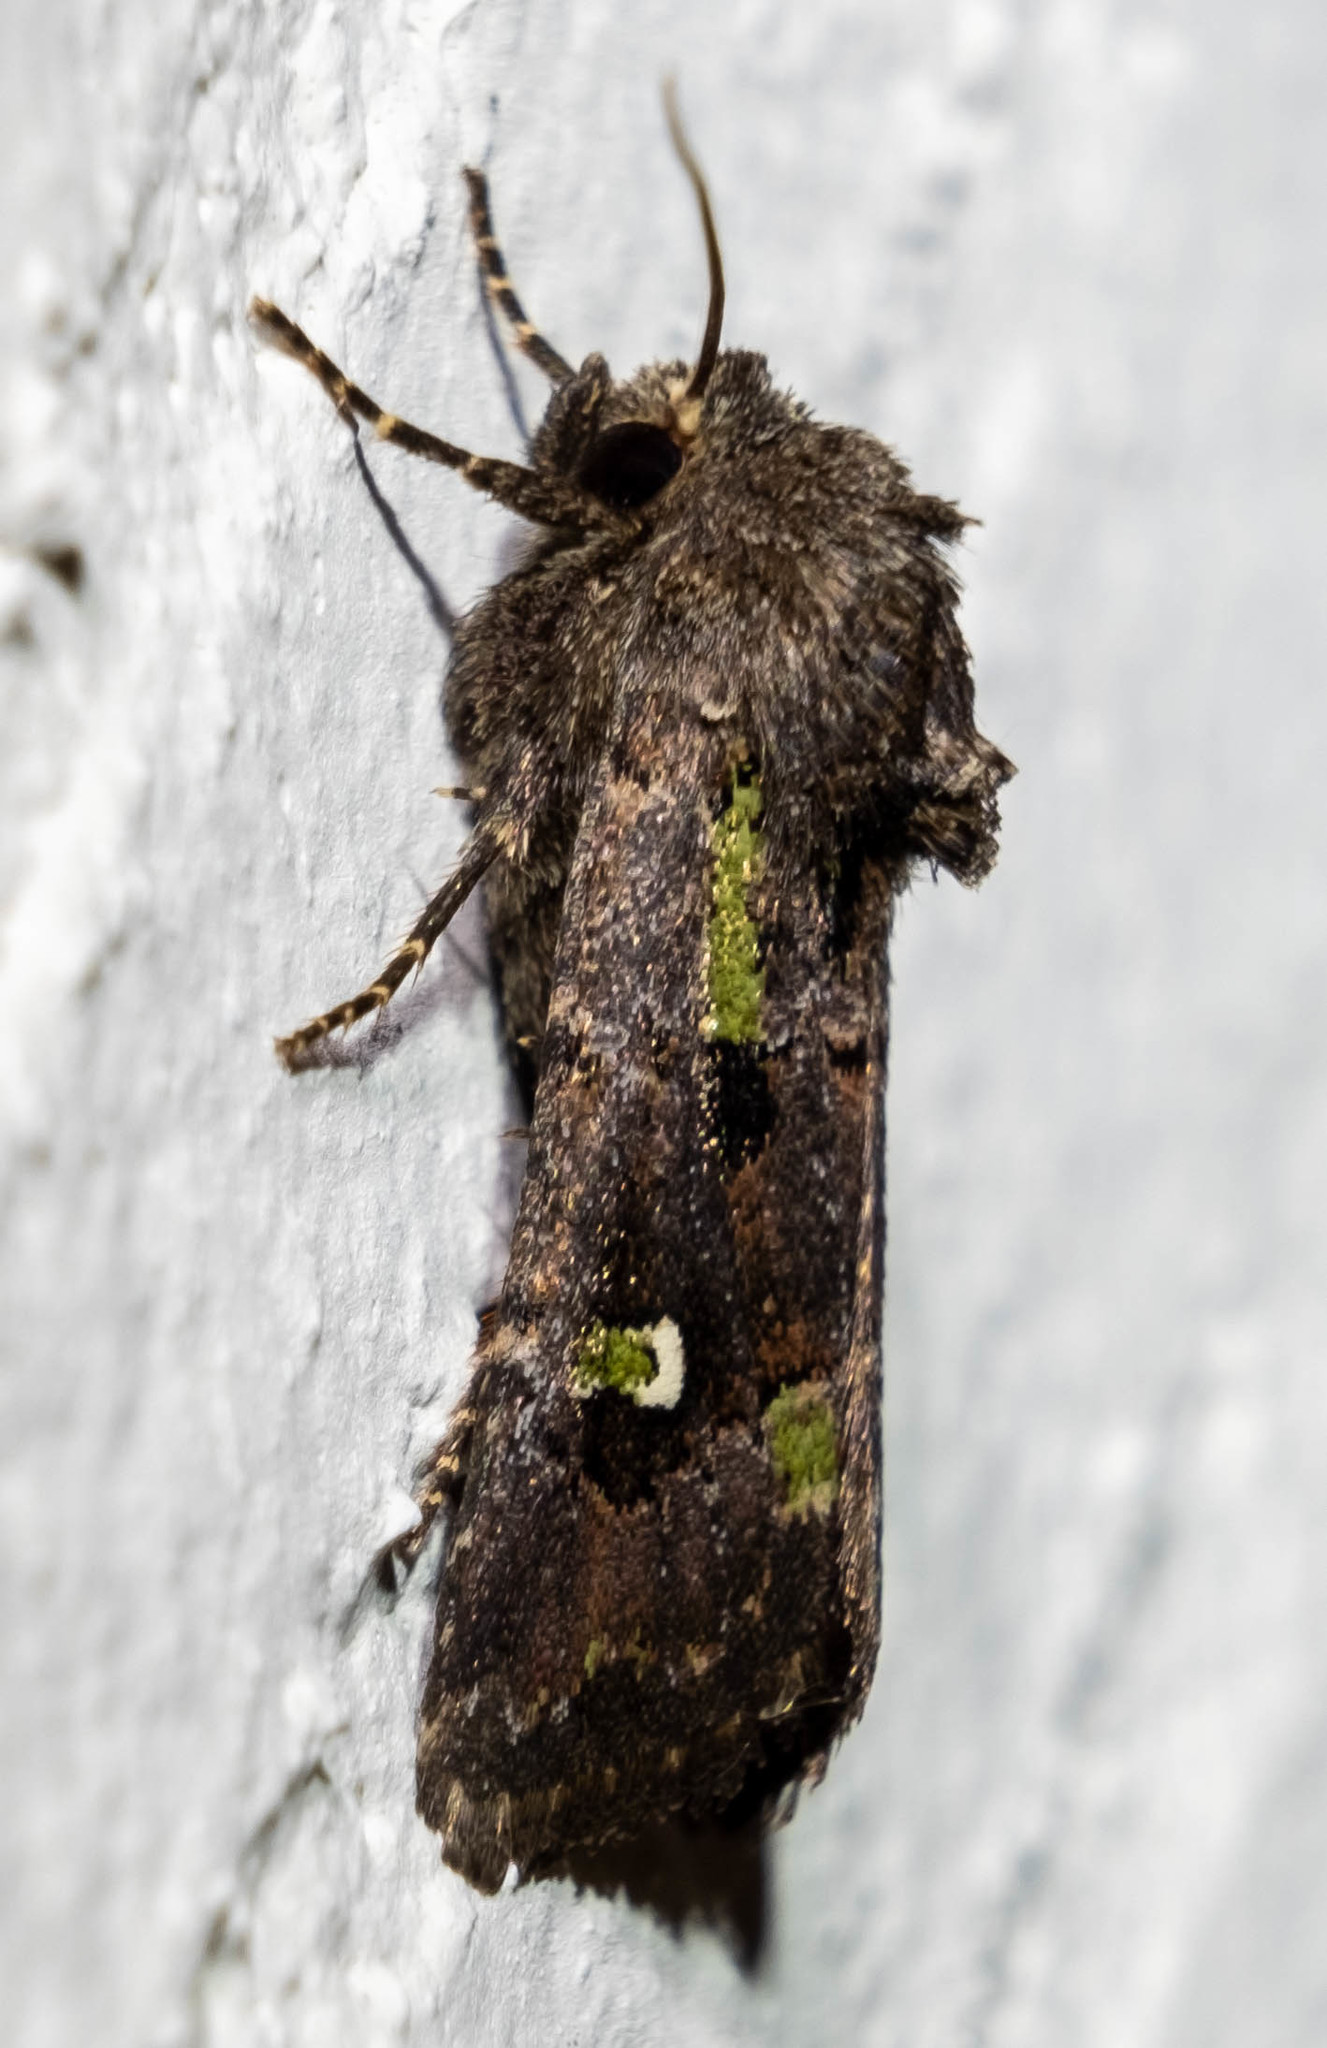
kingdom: Animalia
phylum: Arthropoda
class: Insecta
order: Lepidoptera
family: Noctuidae
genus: Lacinipolia
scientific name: Lacinipolia renigera
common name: Kidney-spotted minor
